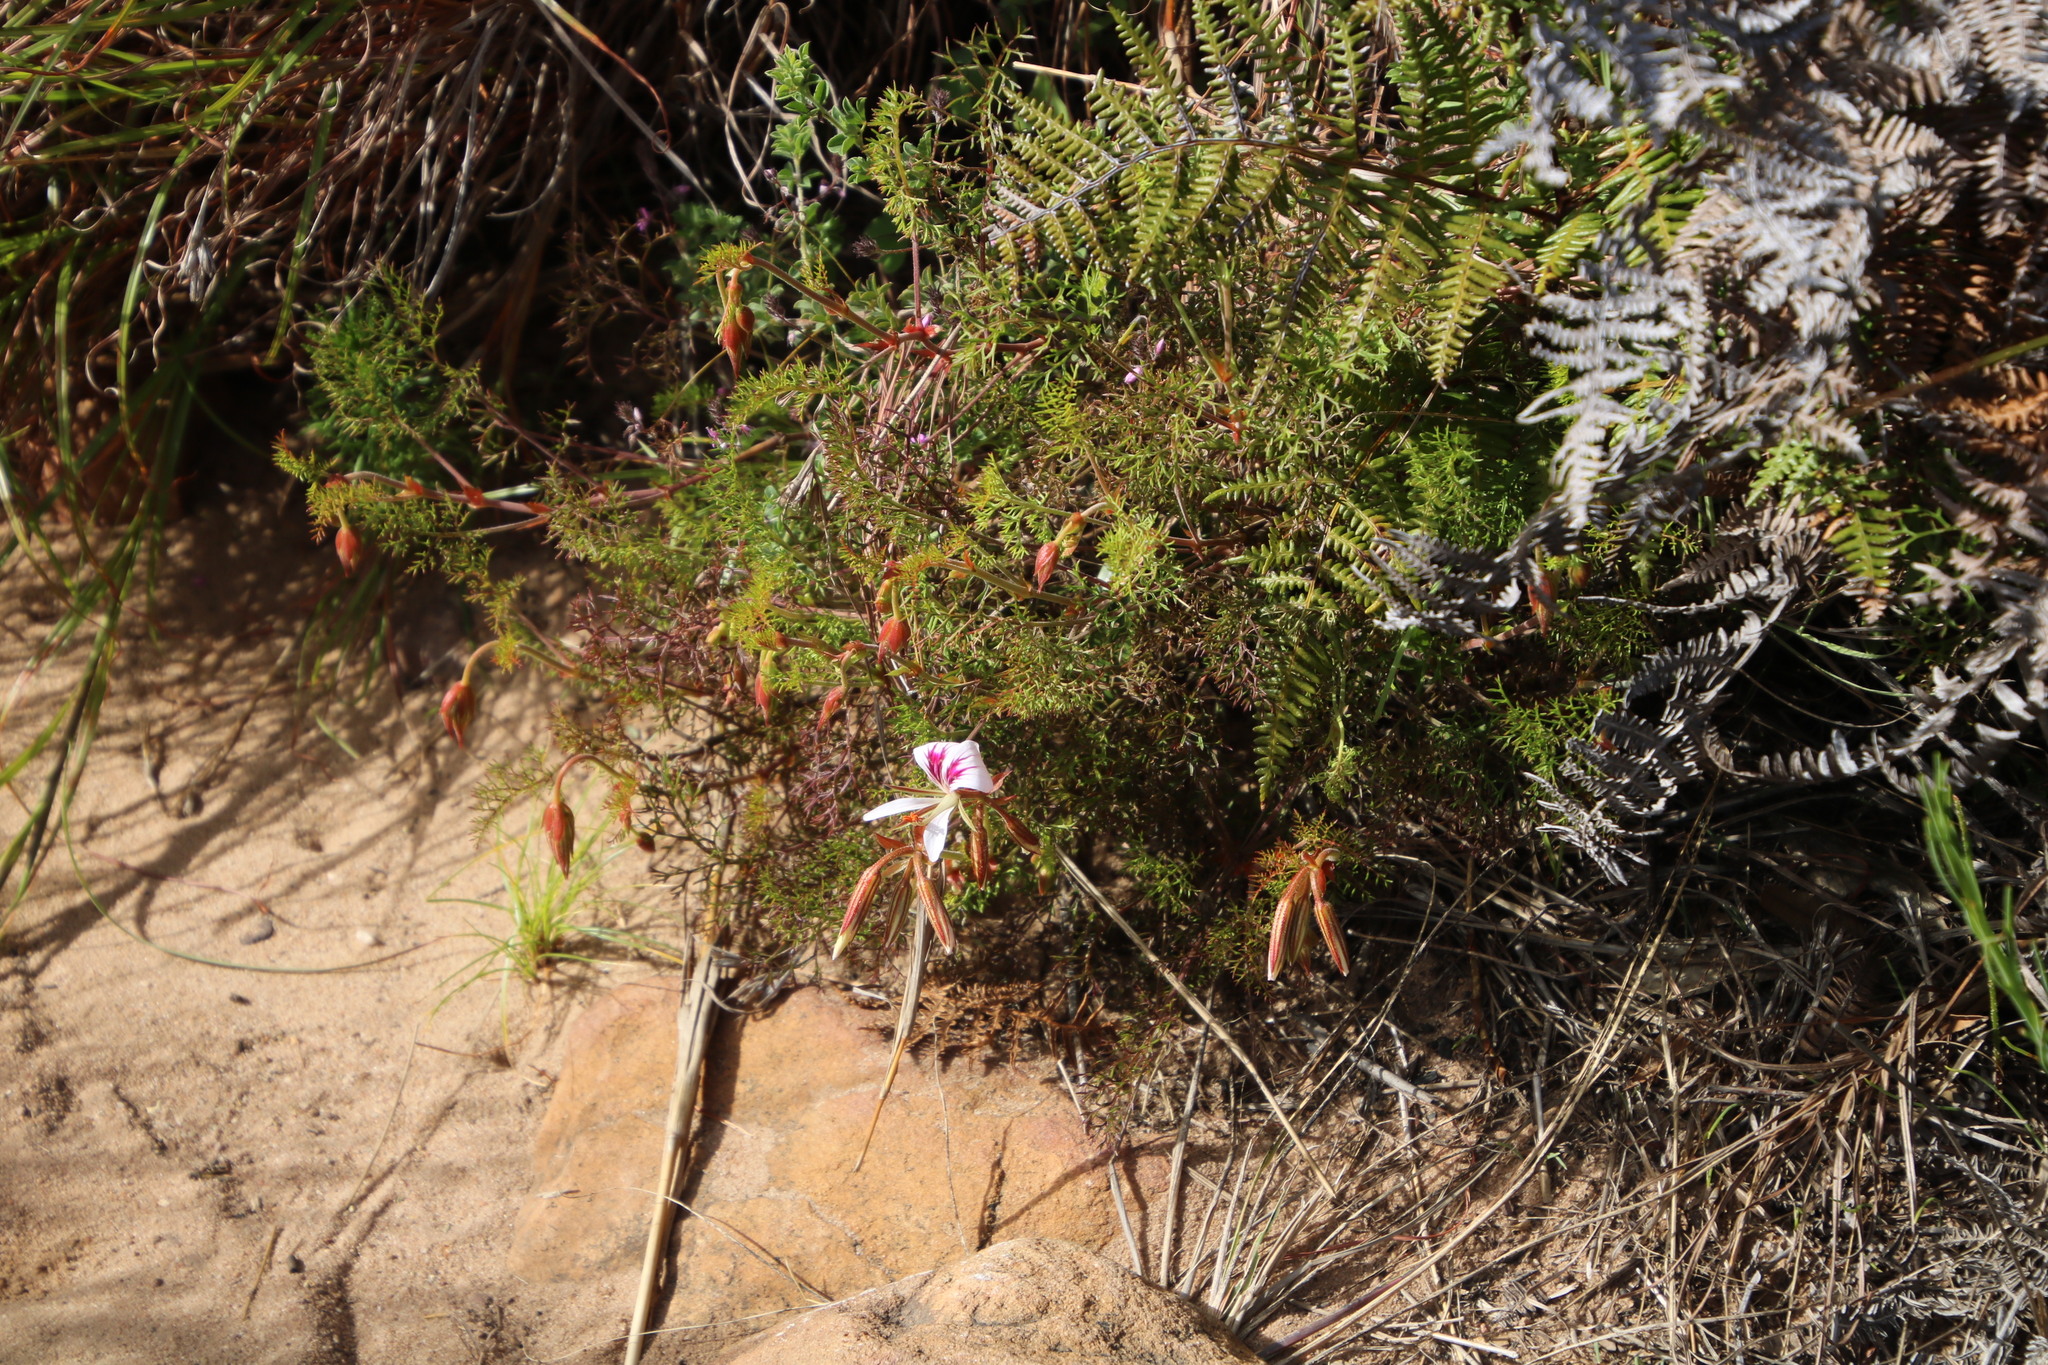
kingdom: Plantae
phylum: Tracheophyta
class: Magnoliopsida
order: Geraniales
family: Geraniaceae
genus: Pelargonium
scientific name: Pelargonium myrrhifolium
